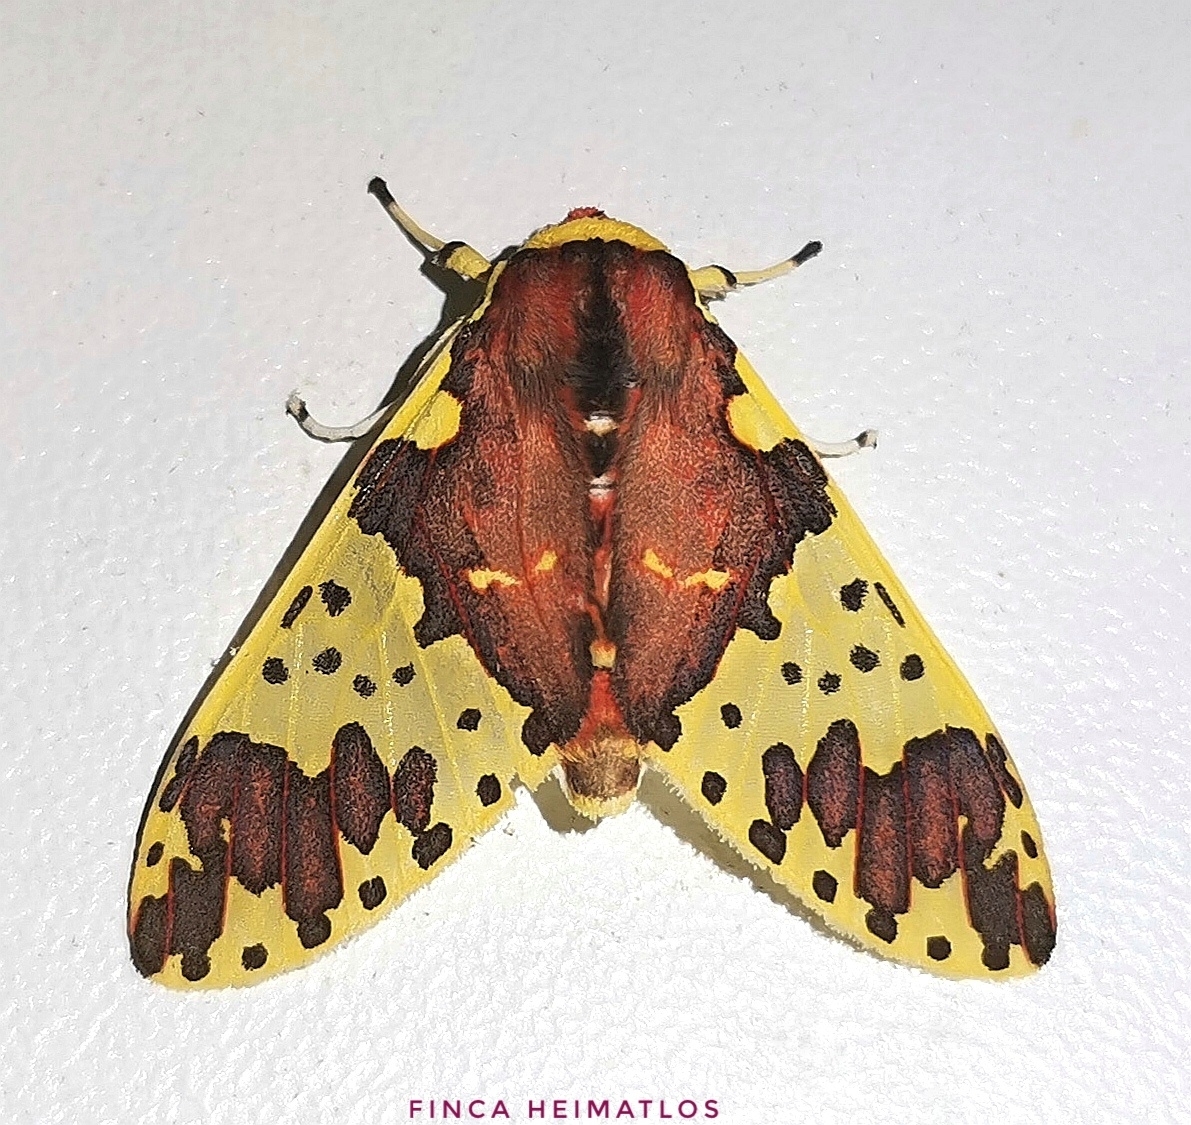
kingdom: Animalia
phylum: Arthropoda
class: Insecta
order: Lepidoptera
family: Erebidae
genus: Amaxia
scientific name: Amaxia carinosa
